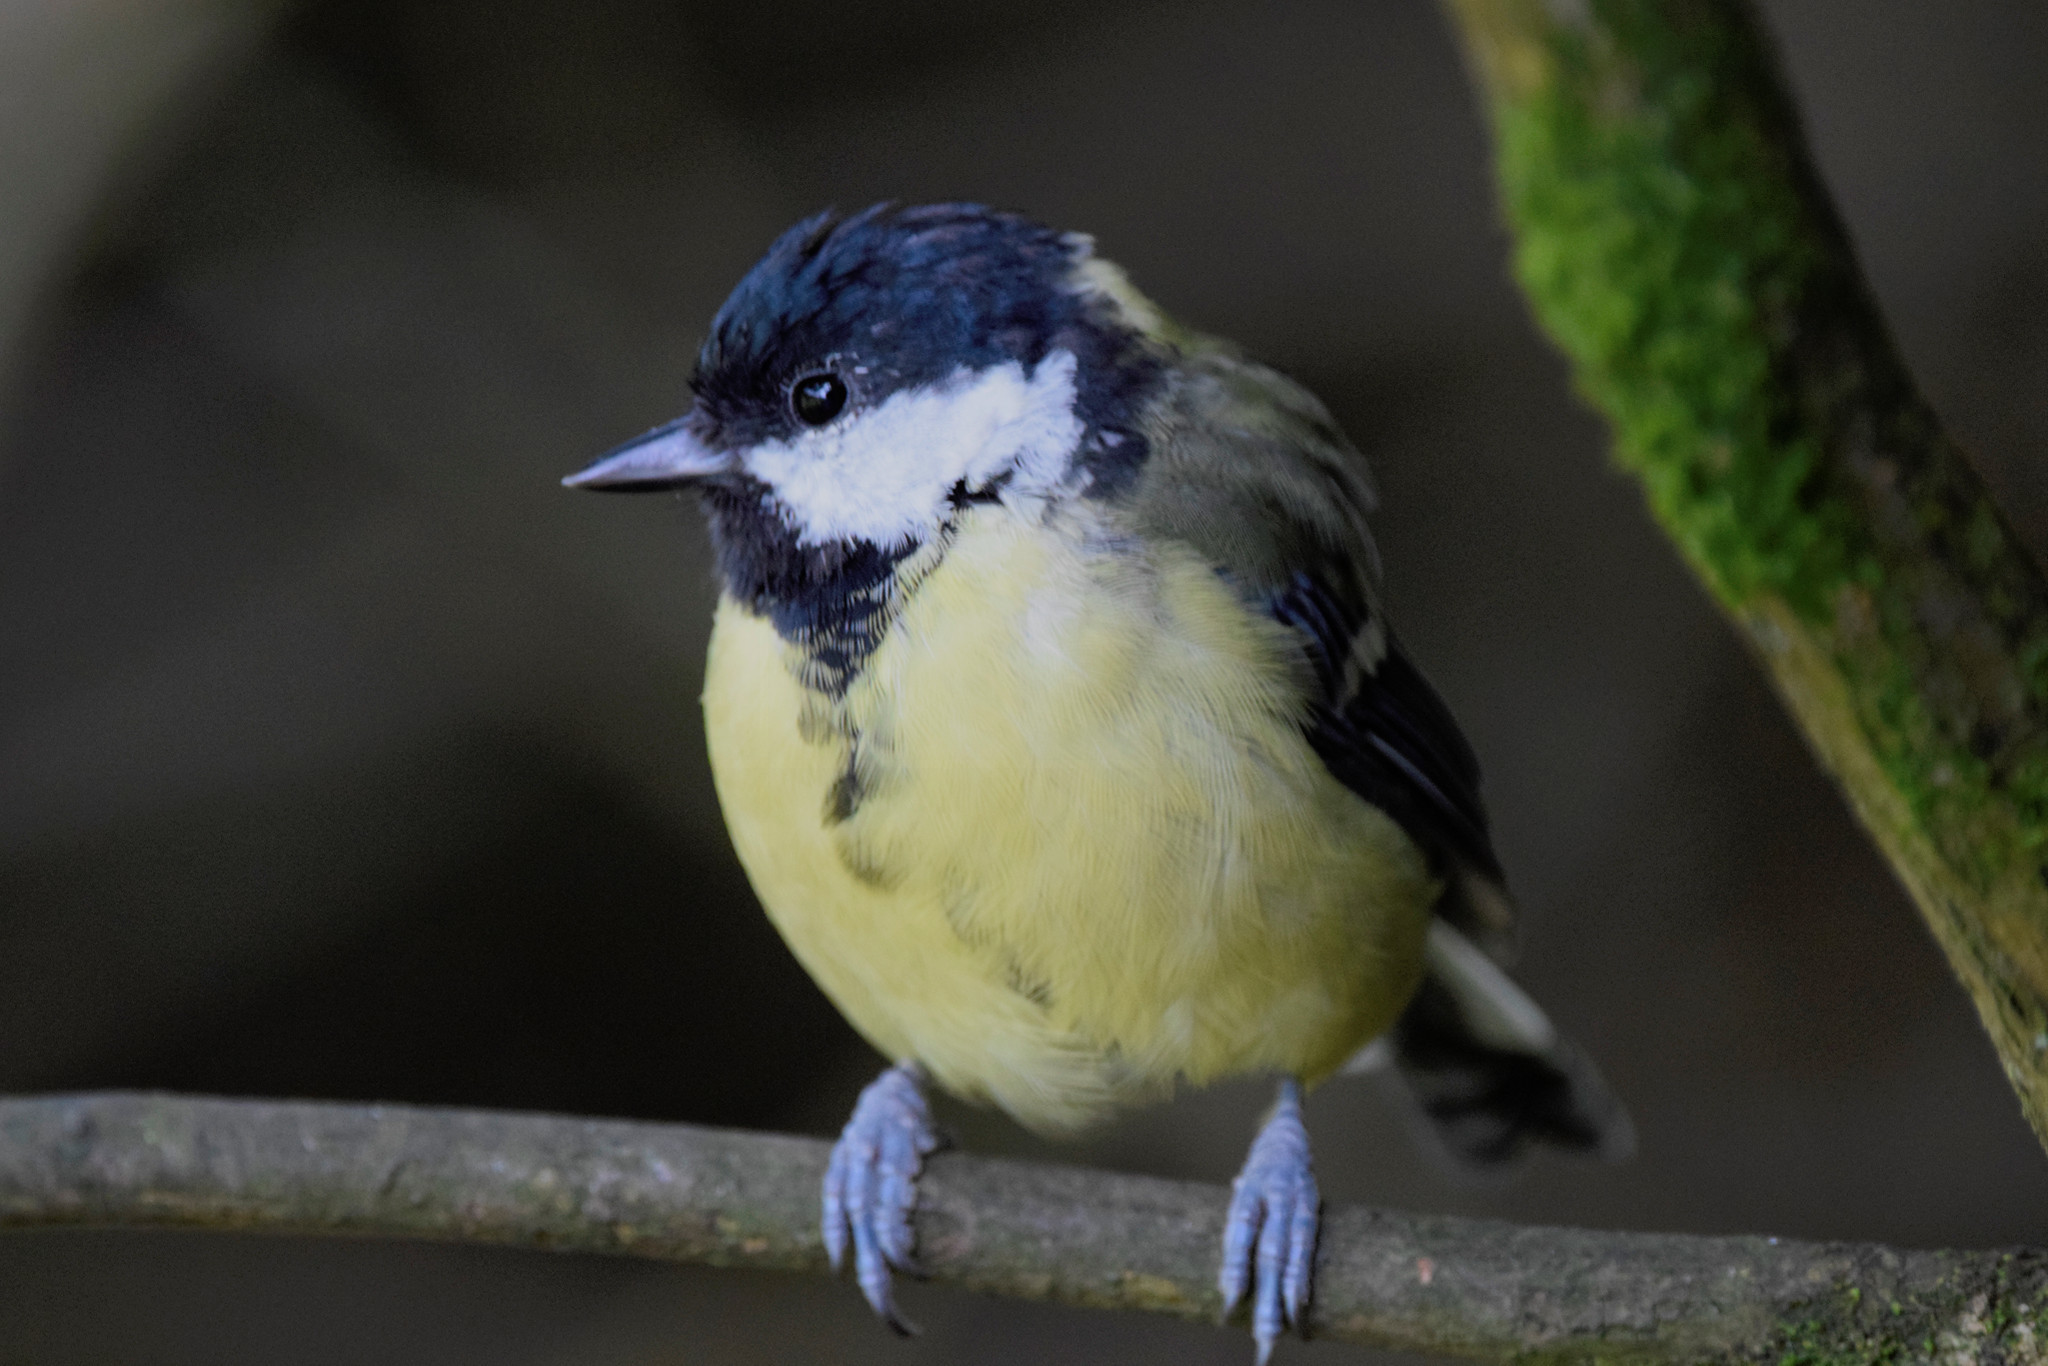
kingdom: Animalia
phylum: Chordata
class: Aves
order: Passeriformes
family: Paridae
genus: Parus
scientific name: Parus major
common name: Great tit
